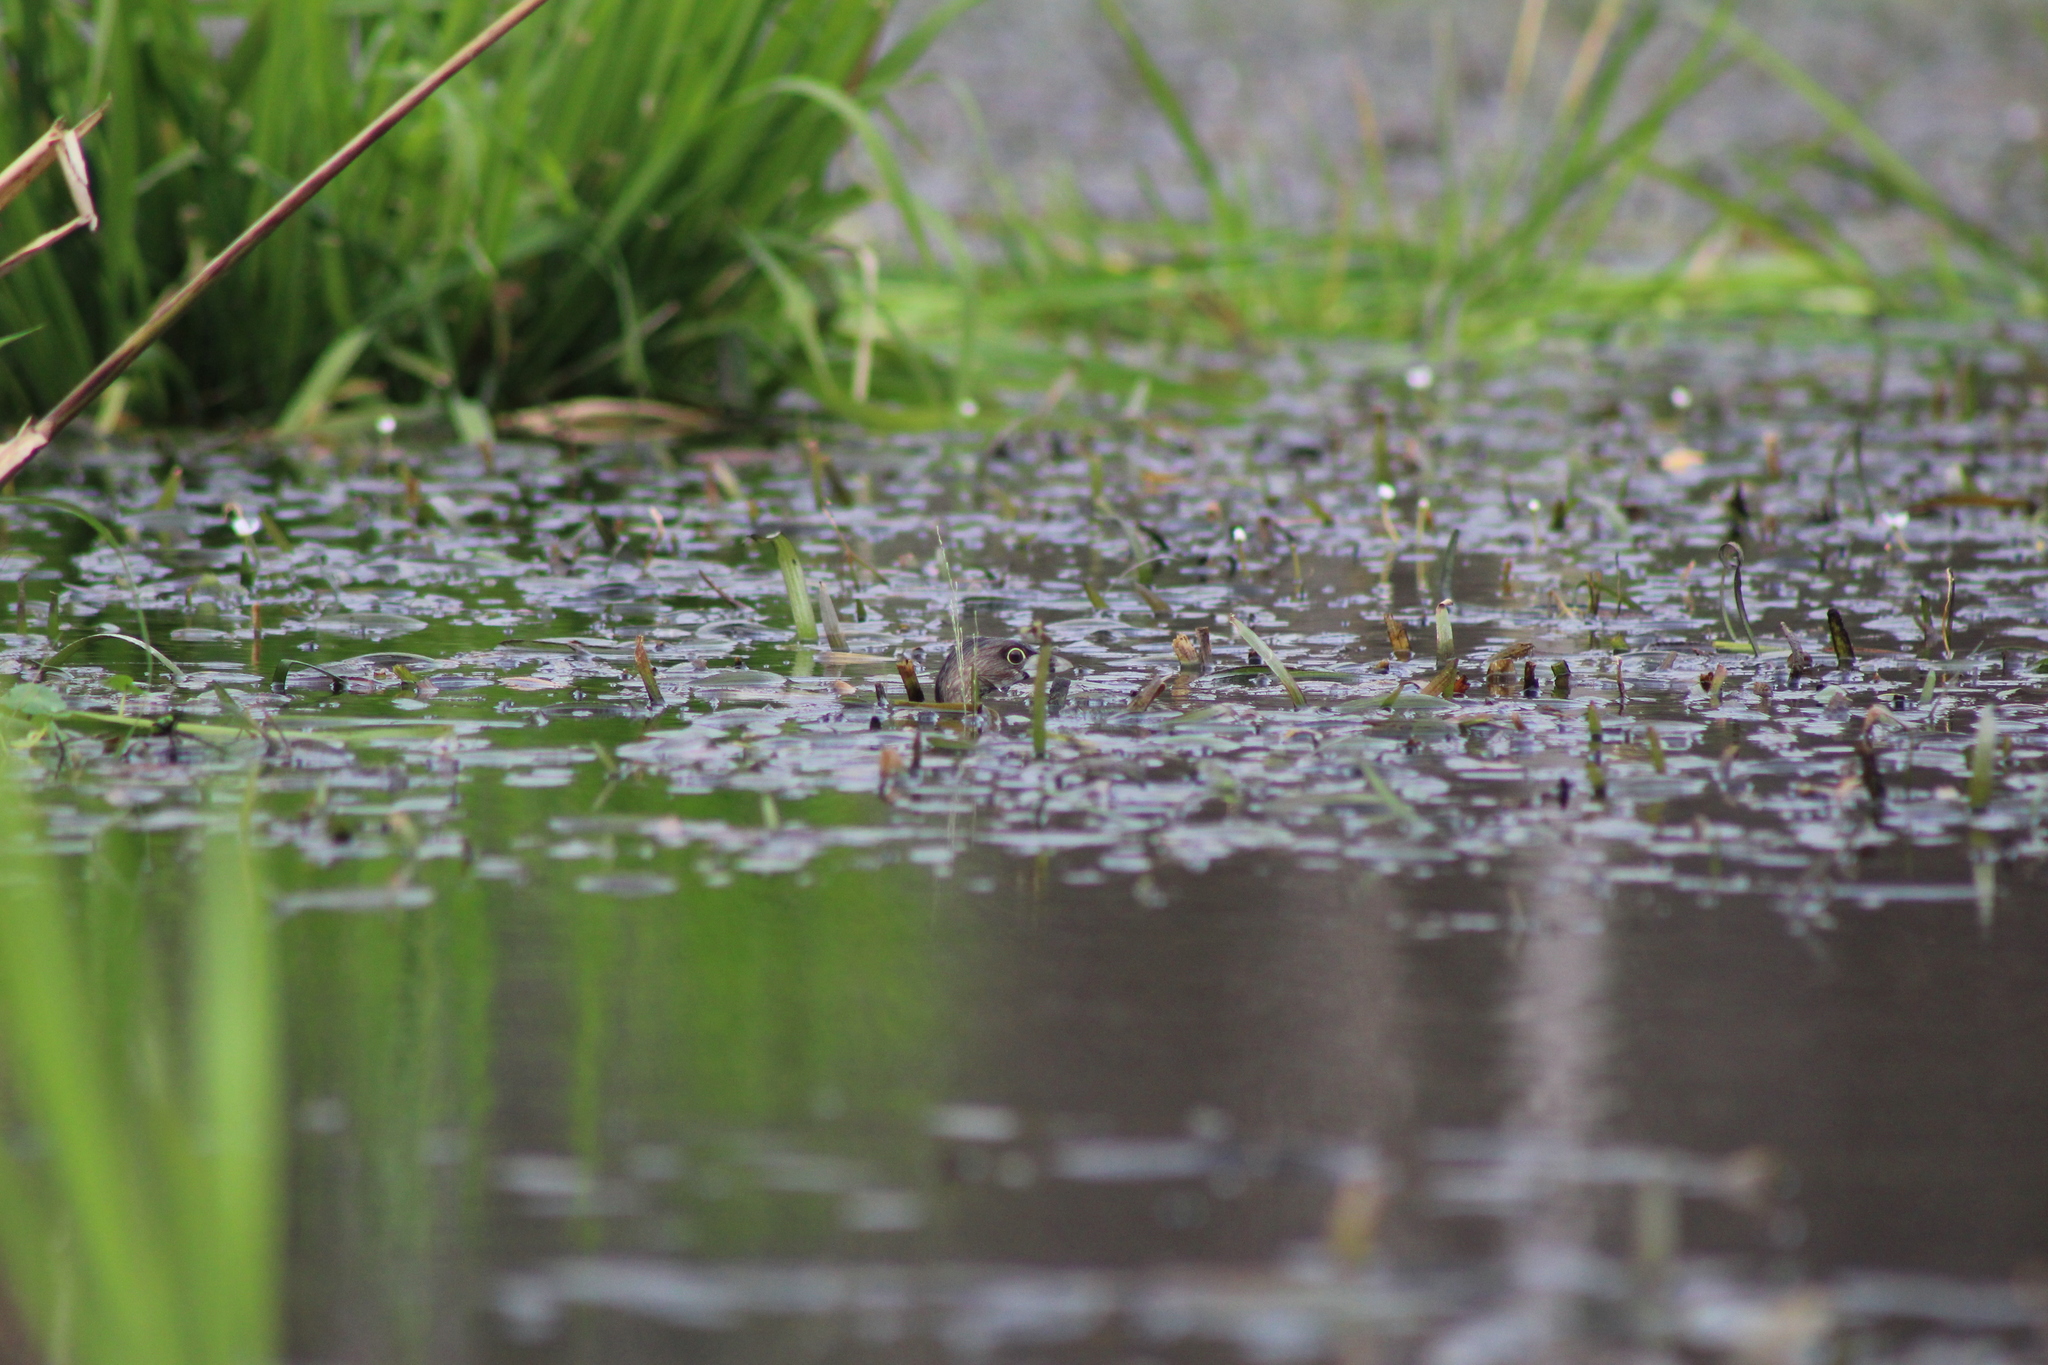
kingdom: Animalia
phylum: Chordata
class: Aves
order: Podicipediformes
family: Podicipedidae
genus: Podilymbus
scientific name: Podilymbus podiceps
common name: Pied-billed grebe
